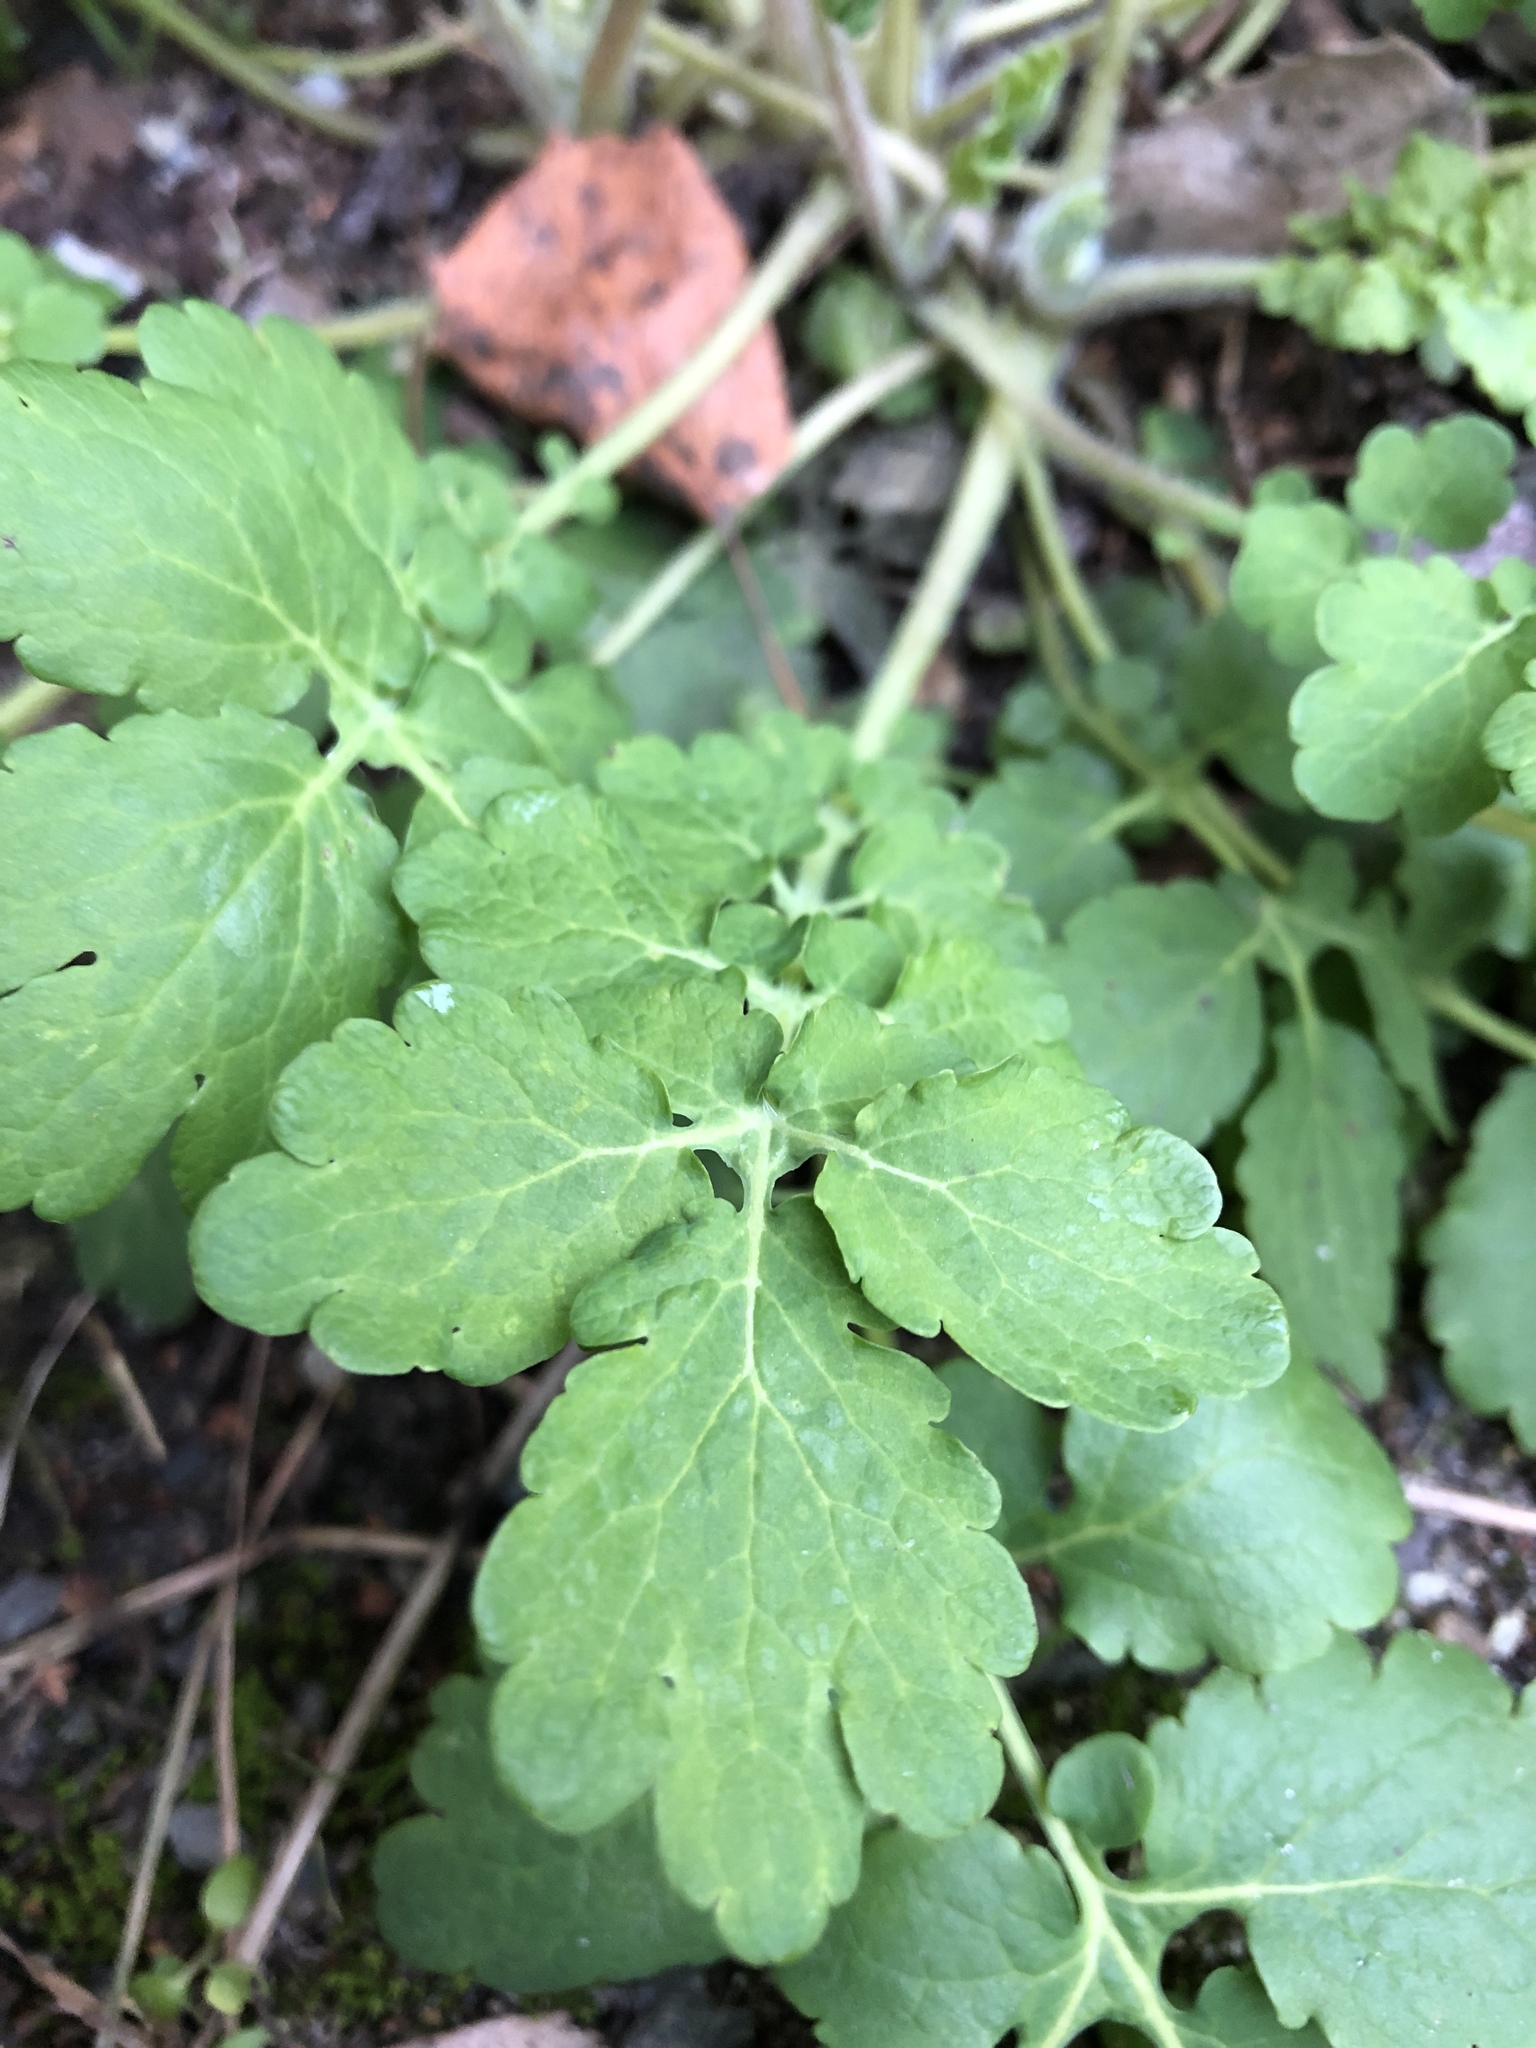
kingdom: Plantae
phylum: Tracheophyta
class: Magnoliopsida
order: Ranunculales
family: Papaveraceae
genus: Chelidonium
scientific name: Chelidonium majus
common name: Greater celandine
